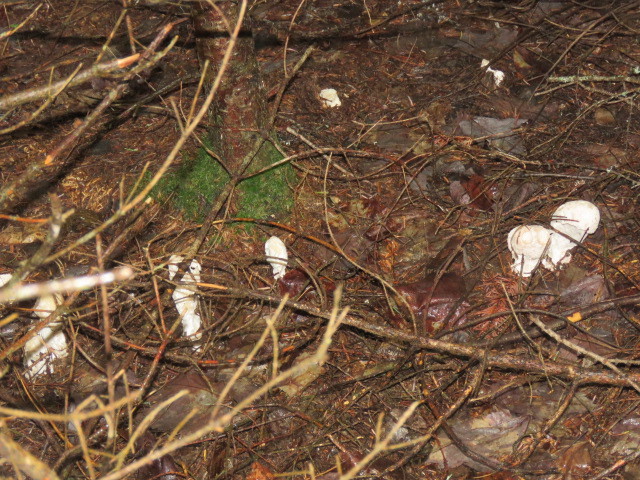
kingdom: Fungi
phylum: Ascomycota
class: Sordariomycetes
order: Hypocreales
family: Hypocreaceae
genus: Hypomyces
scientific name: Hypomyces hyalinus
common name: Amanita mold
